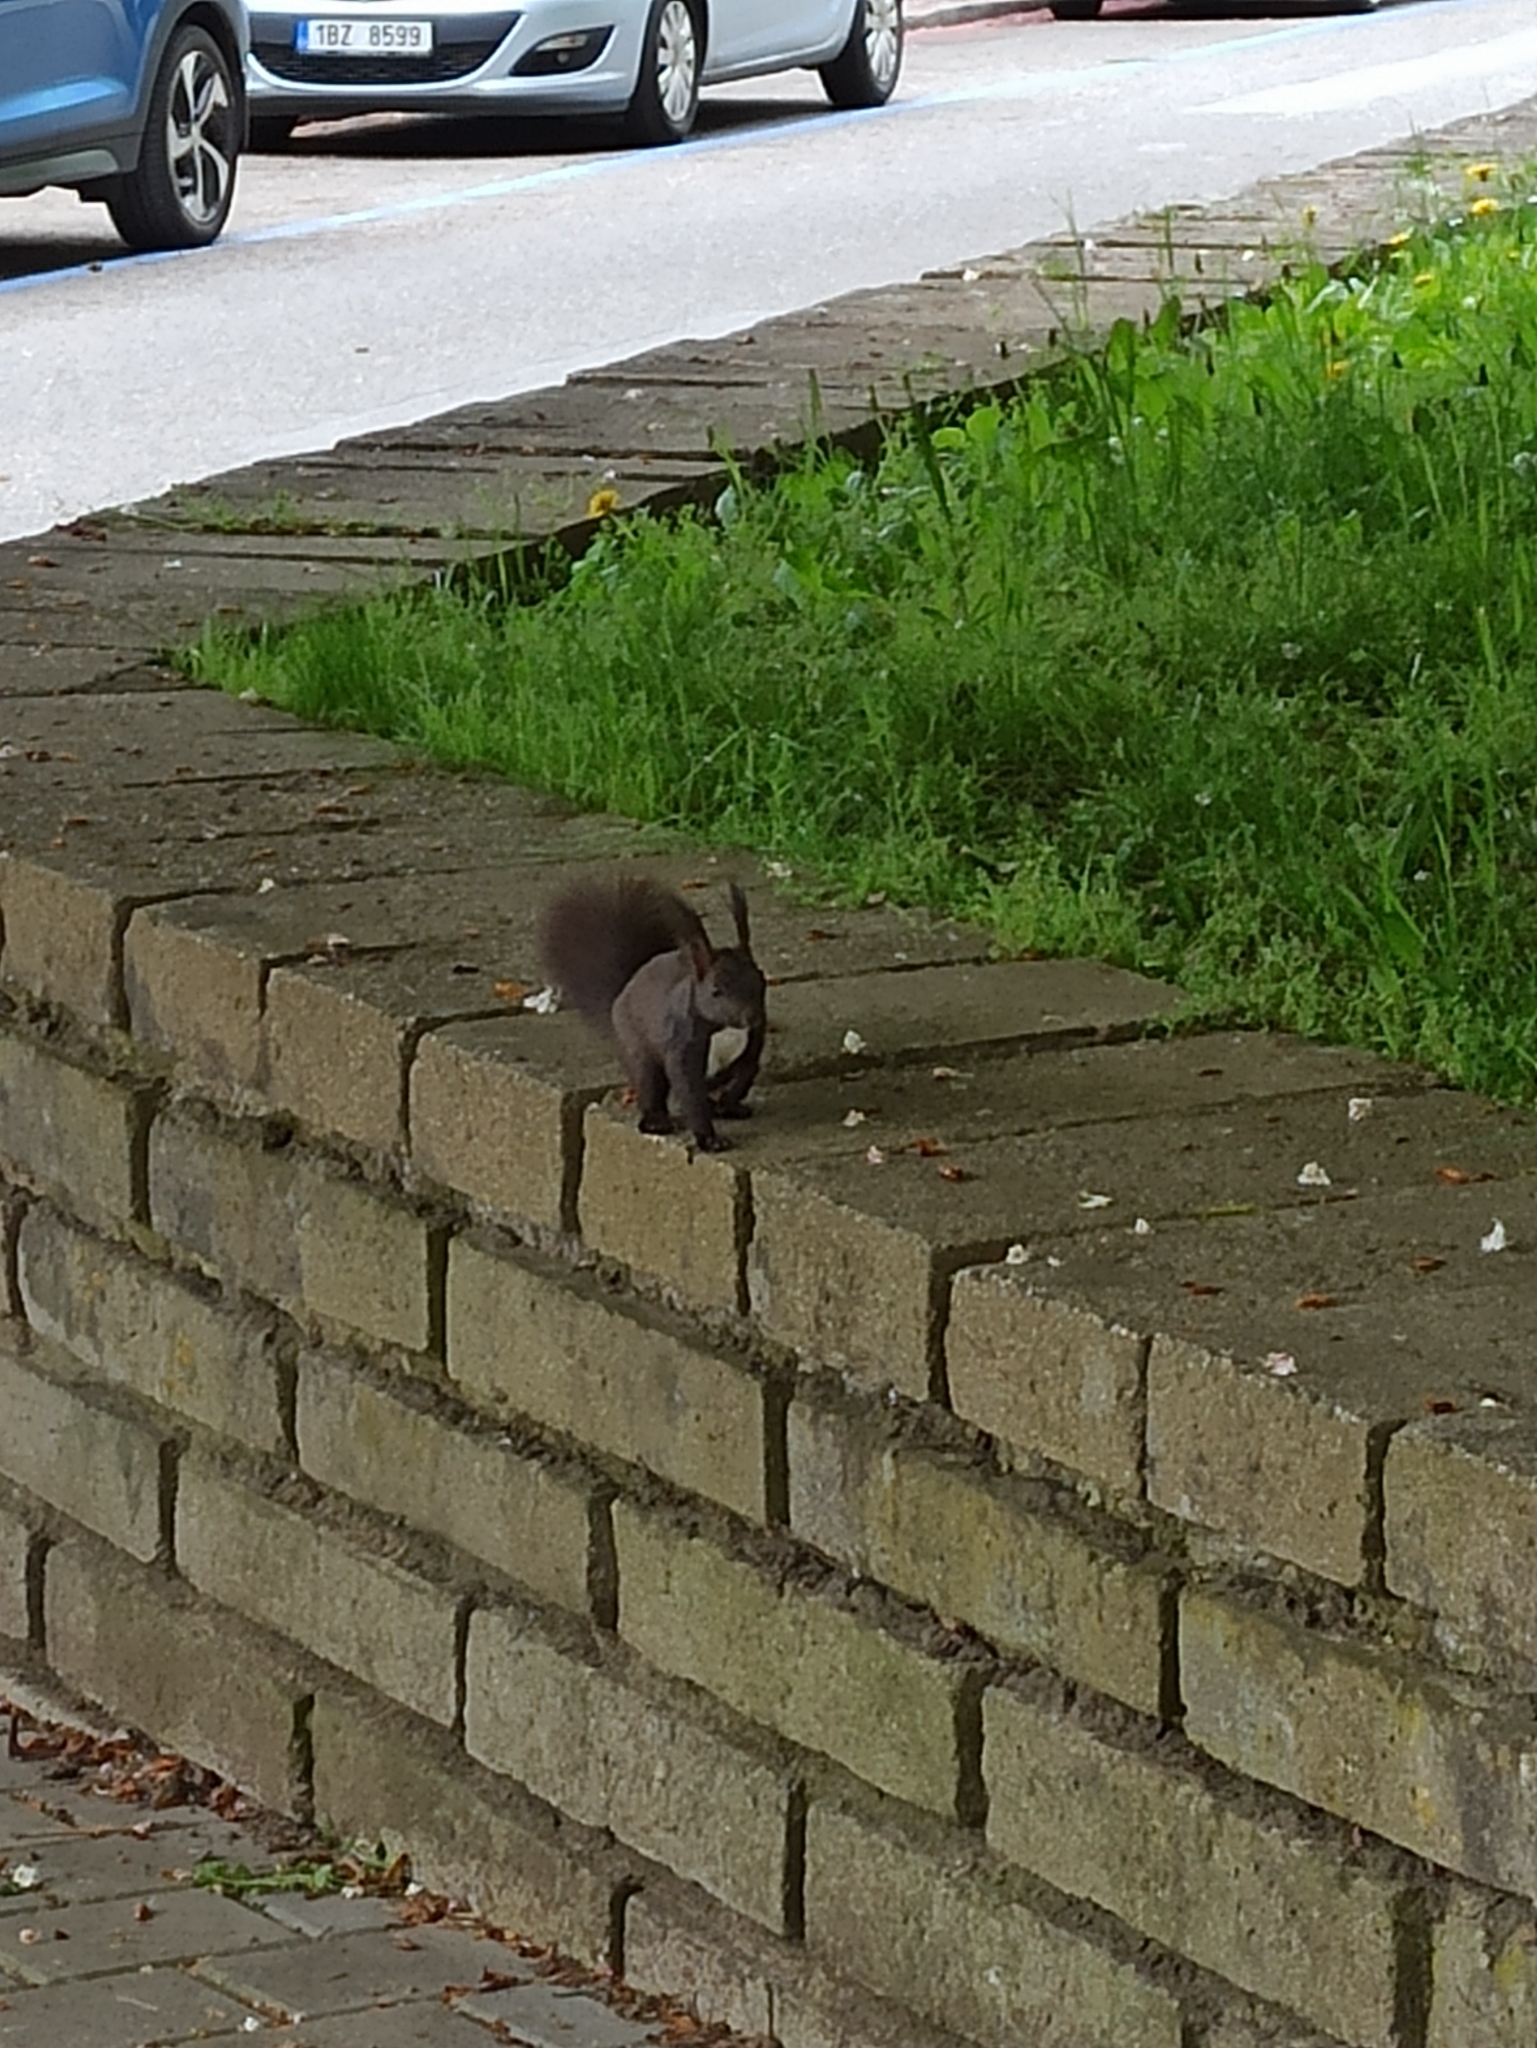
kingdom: Animalia
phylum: Chordata
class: Mammalia
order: Rodentia
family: Sciuridae
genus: Sciurus
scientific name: Sciurus vulgaris
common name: Eurasian red squirrel
